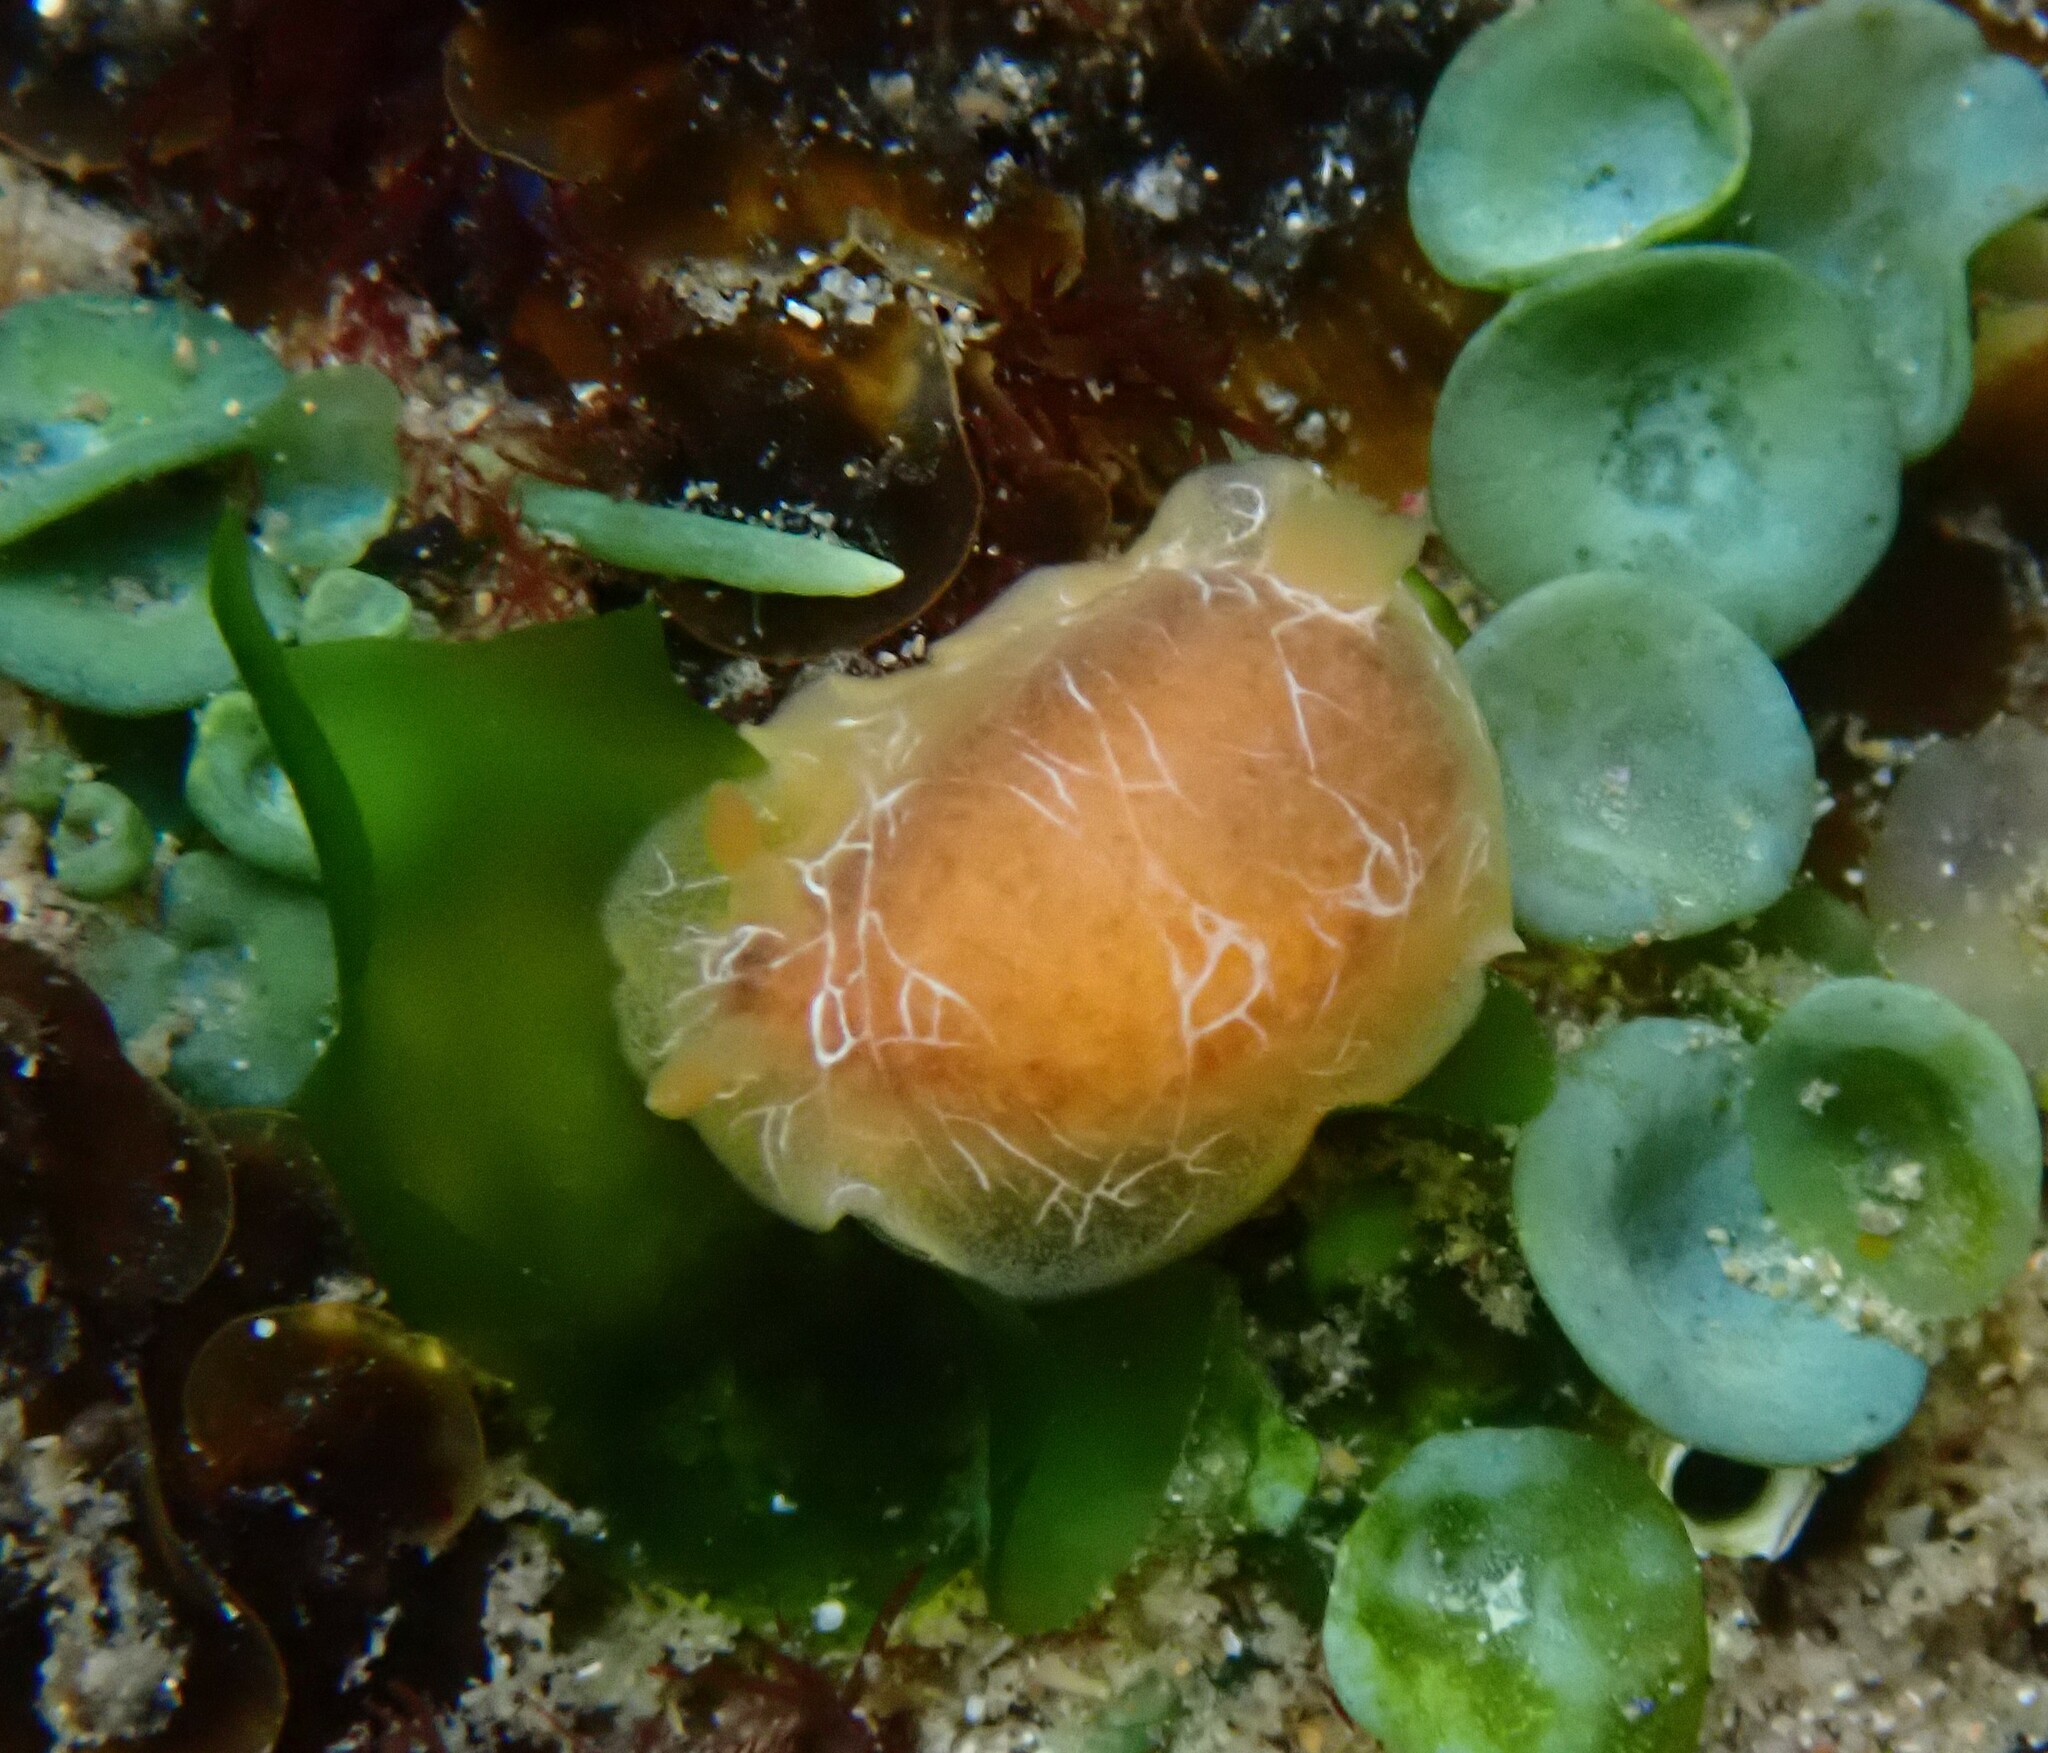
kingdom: Animalia
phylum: Mollusca
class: Gastropoda
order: Nudibranchia
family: Dendrodorididae
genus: Doriopsilla
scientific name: Doriopsilla miniata
